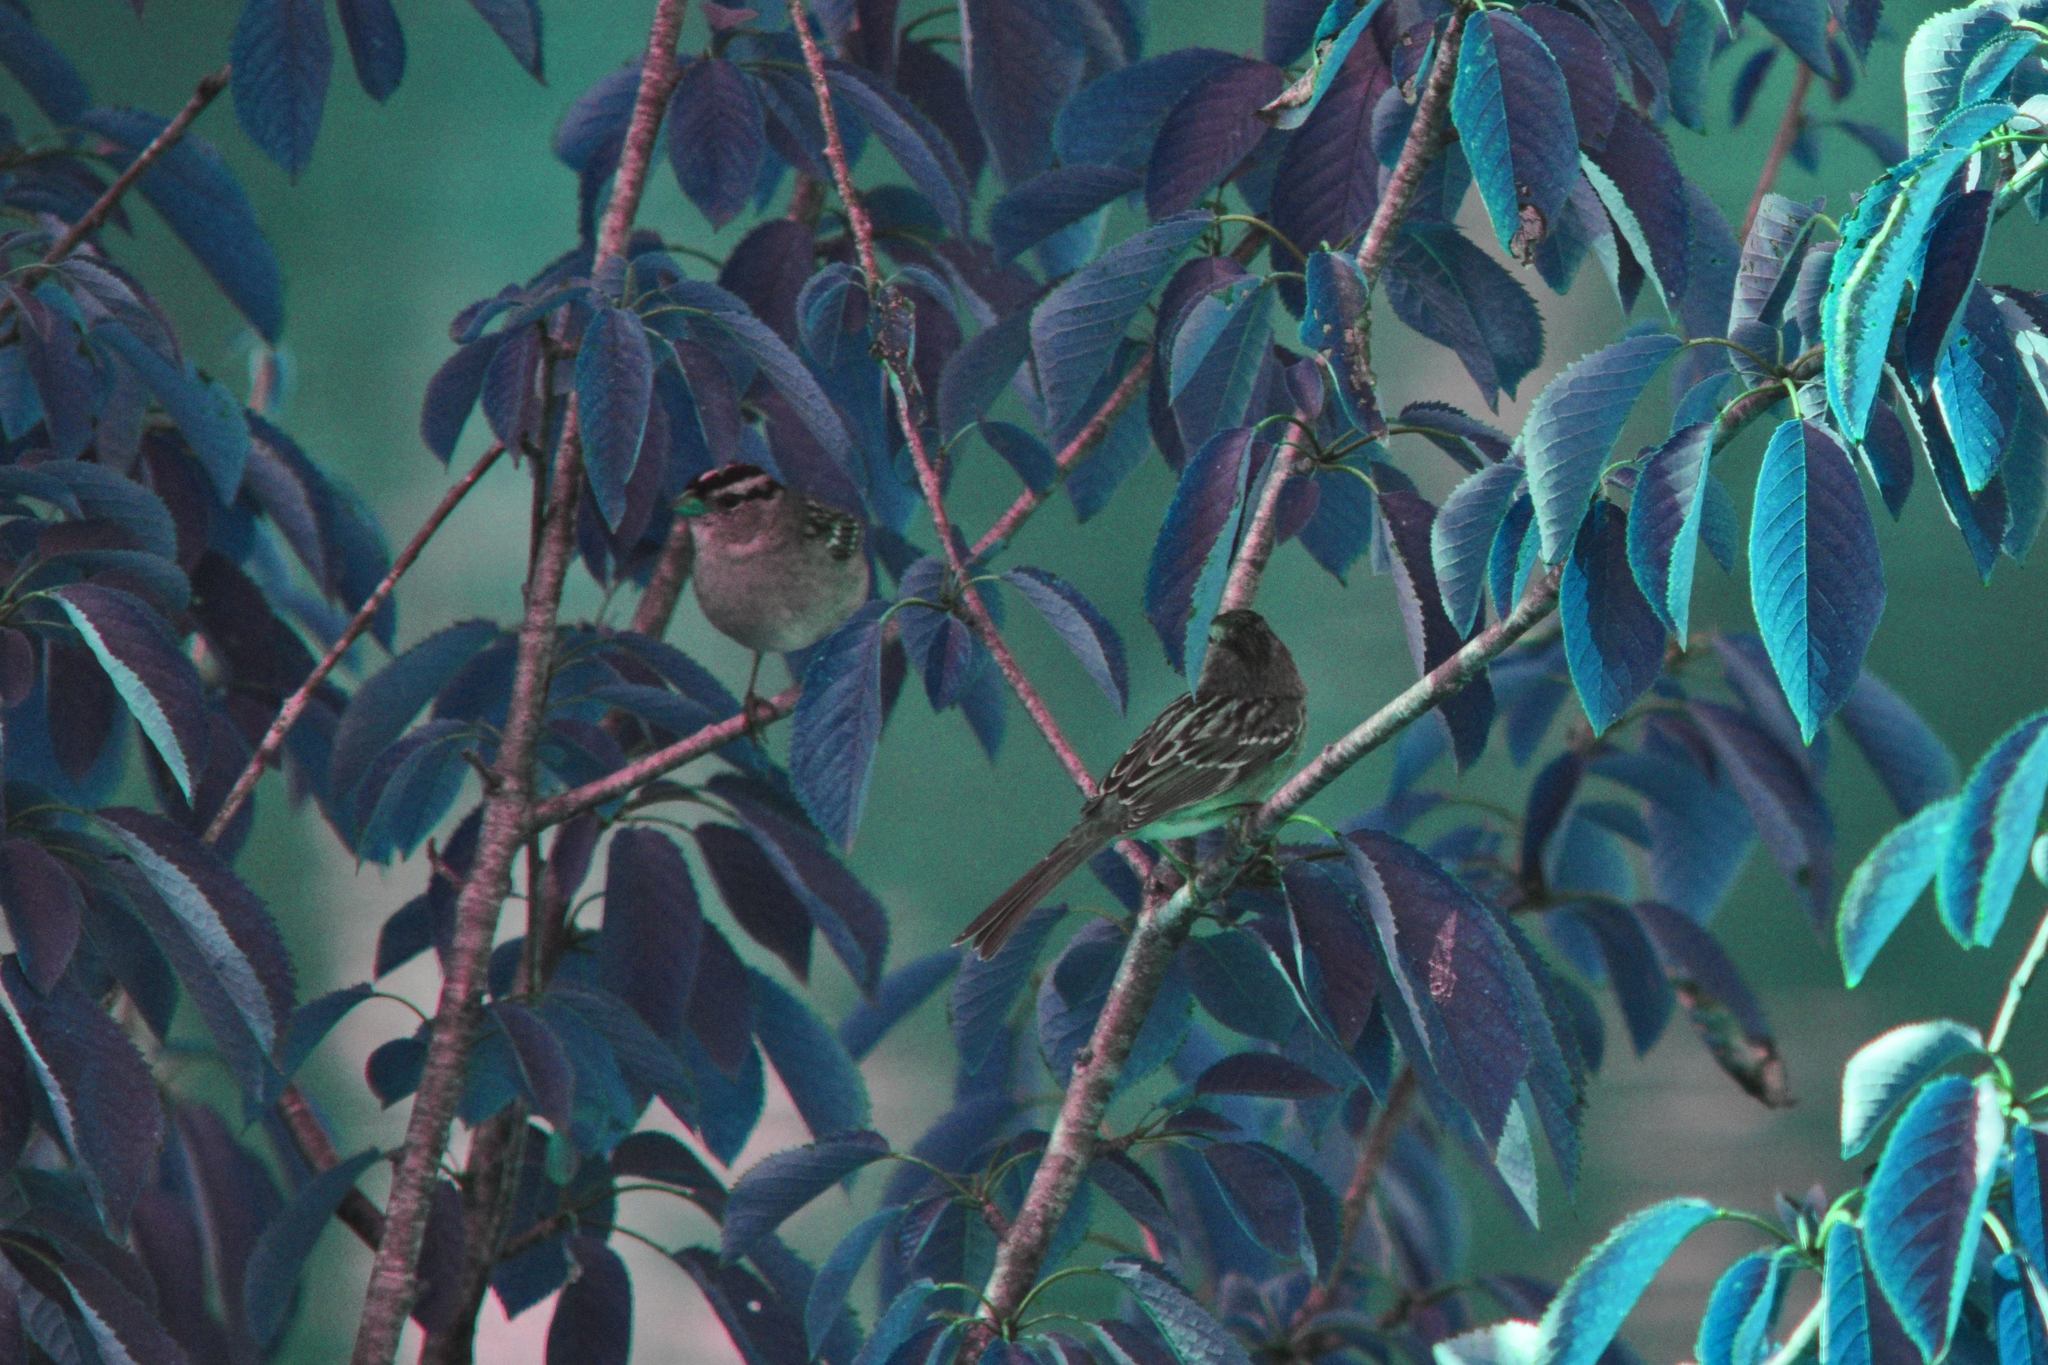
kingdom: Animalia
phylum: Chordata
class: Aves
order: Passeriformes
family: Passerellidae
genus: Zonotrichia
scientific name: Zonotrichia leucophrys
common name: White-crowned sparrow
